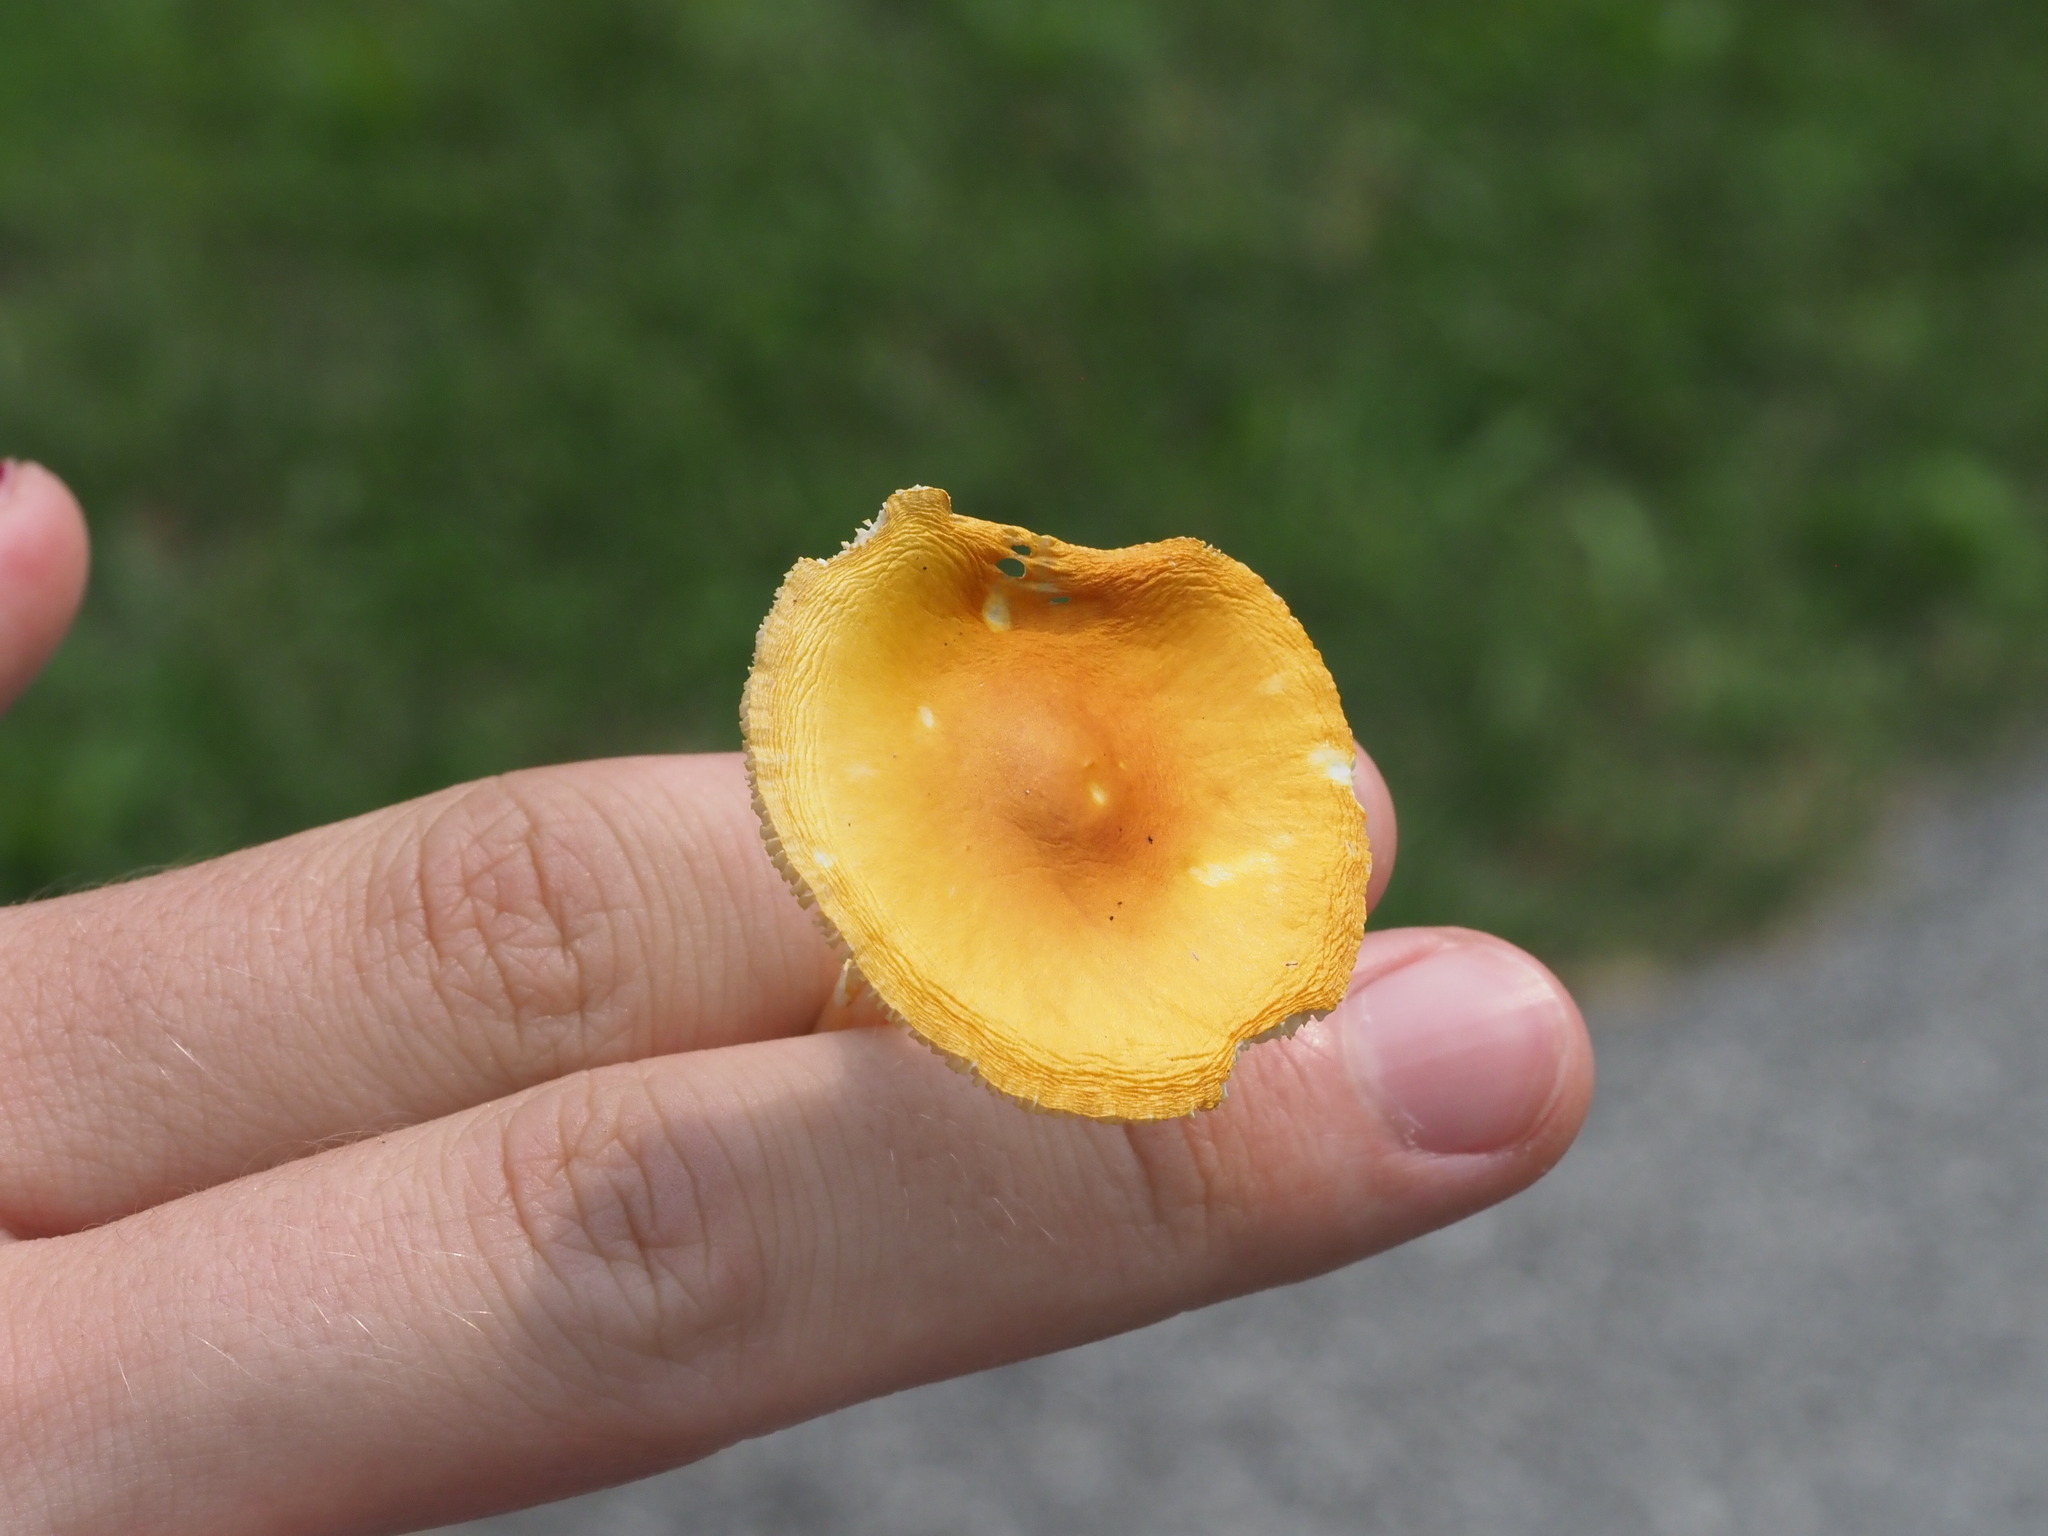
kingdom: Fungi
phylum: Basidiomycota
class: Agaricomycetes
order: Agaricales
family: Amanitaceae
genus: Amanita
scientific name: Amanita flavoconia
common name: Yellow patches
